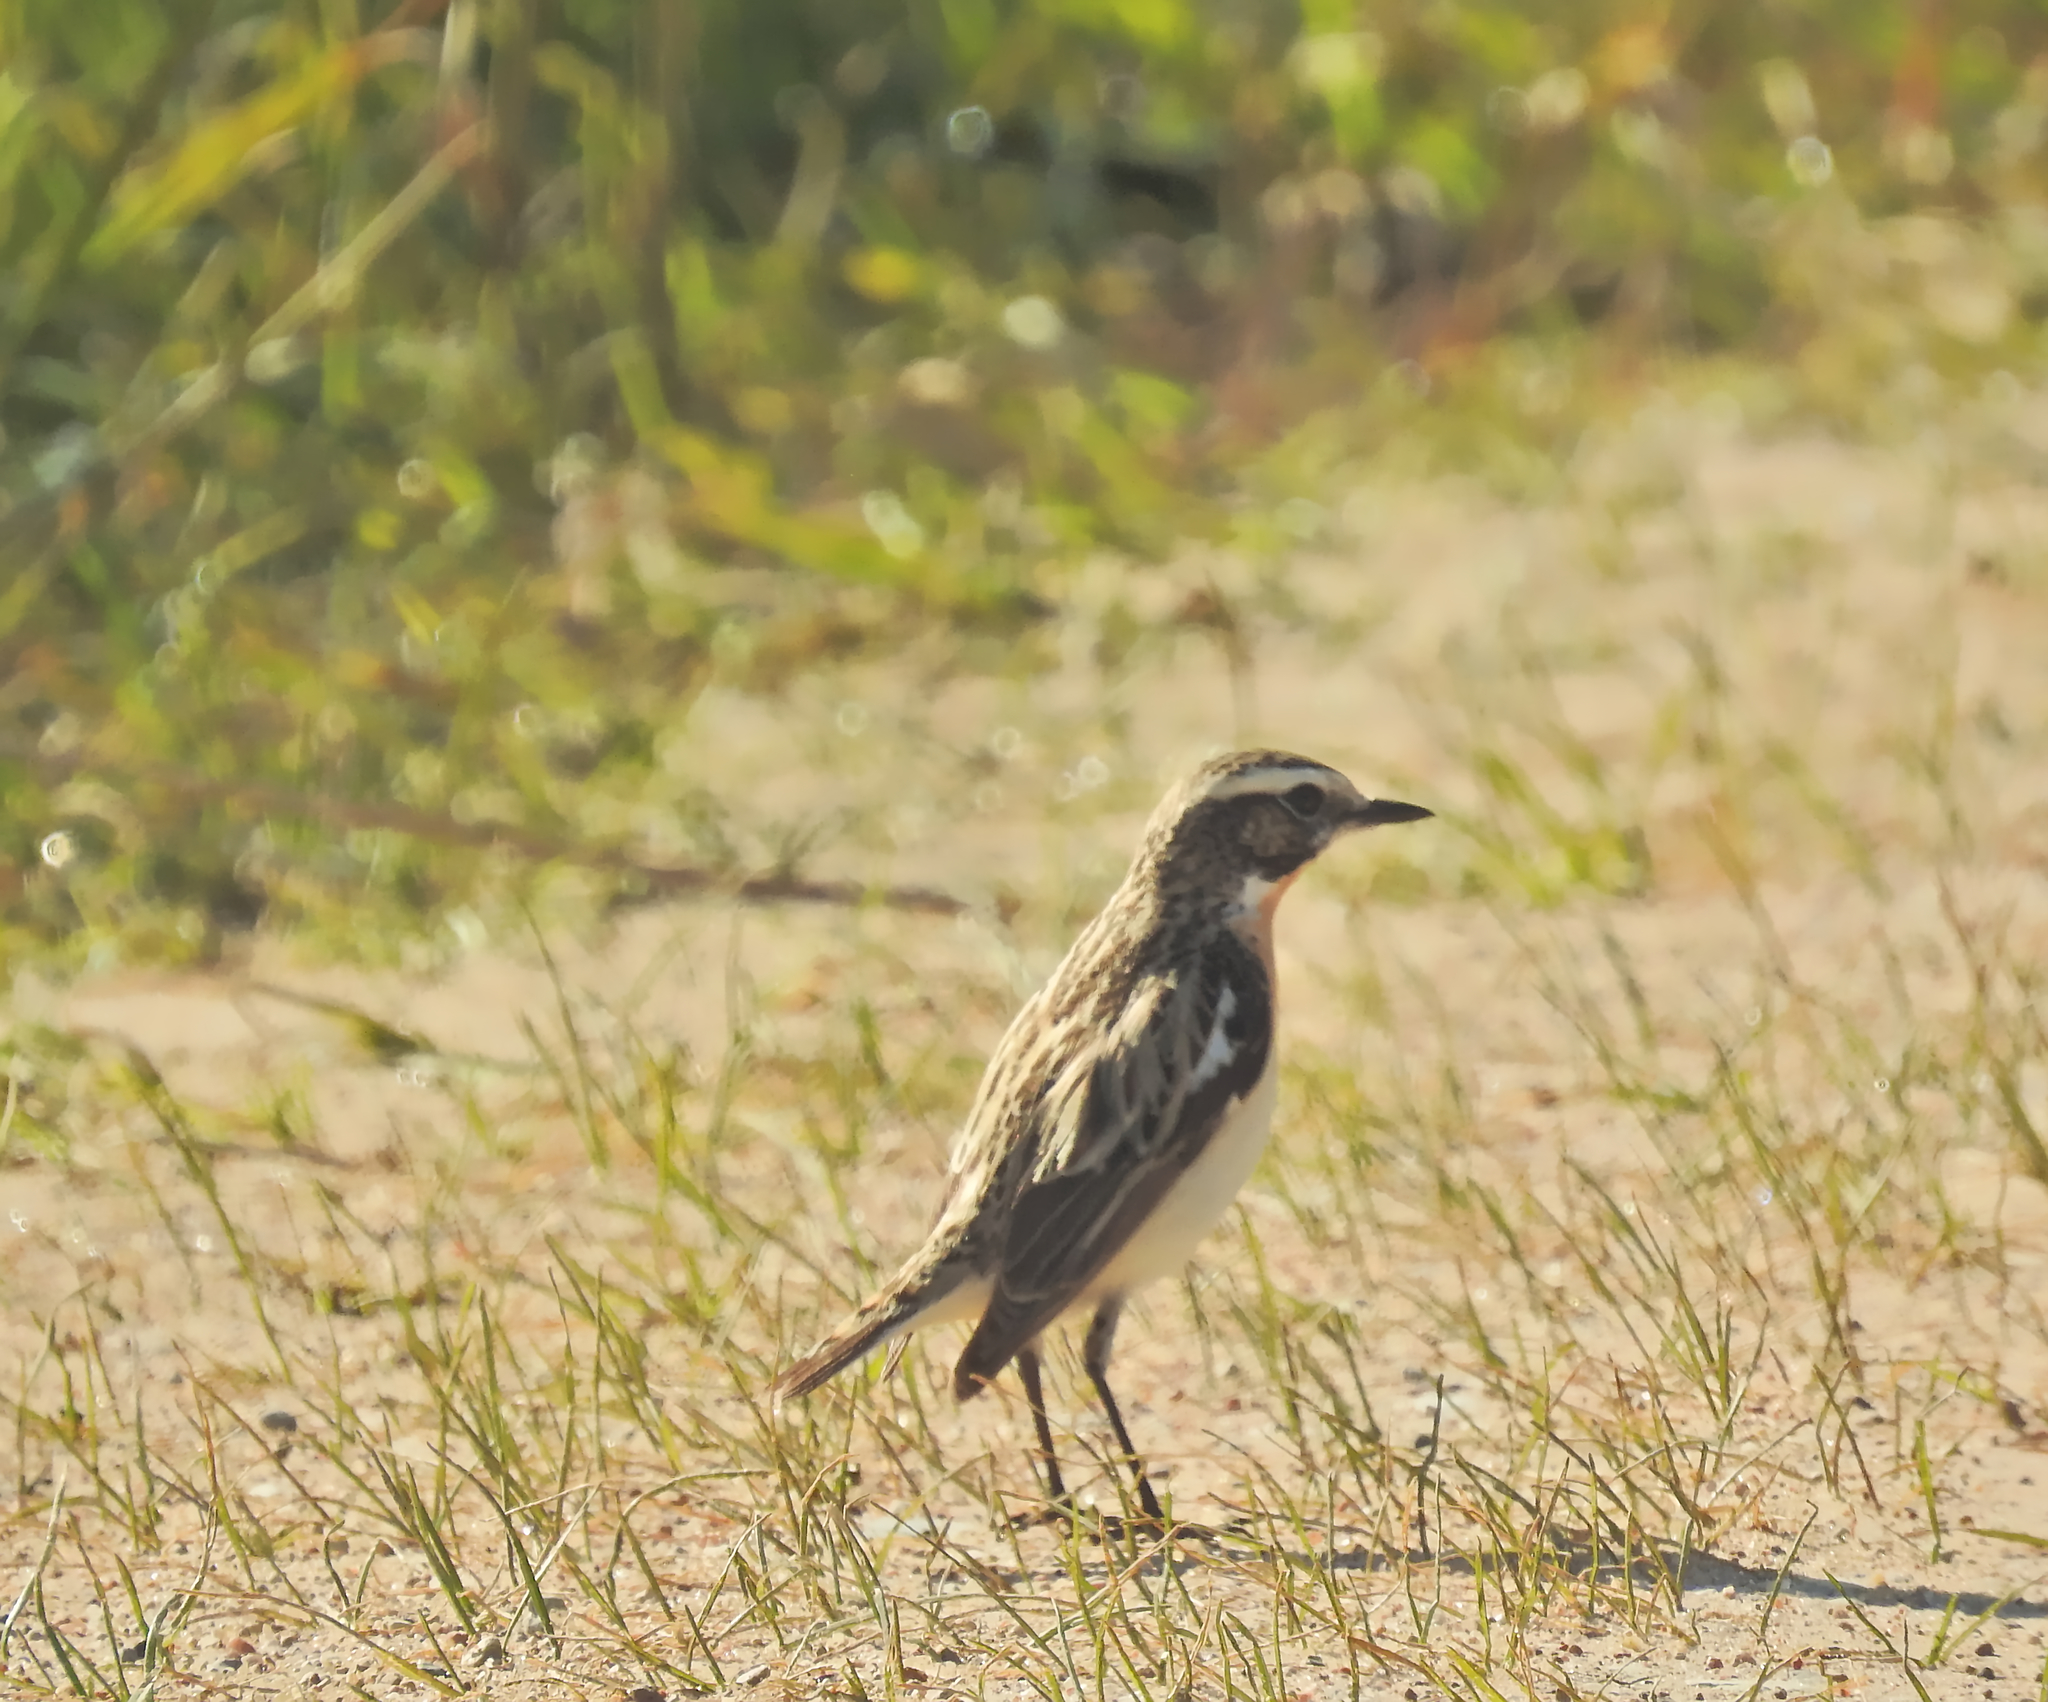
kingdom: Animalia
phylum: Chordata
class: Aves
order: Passeriformes
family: Muscicapidae
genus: Saxicola
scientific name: Saxicola rubetra
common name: Whinchat
